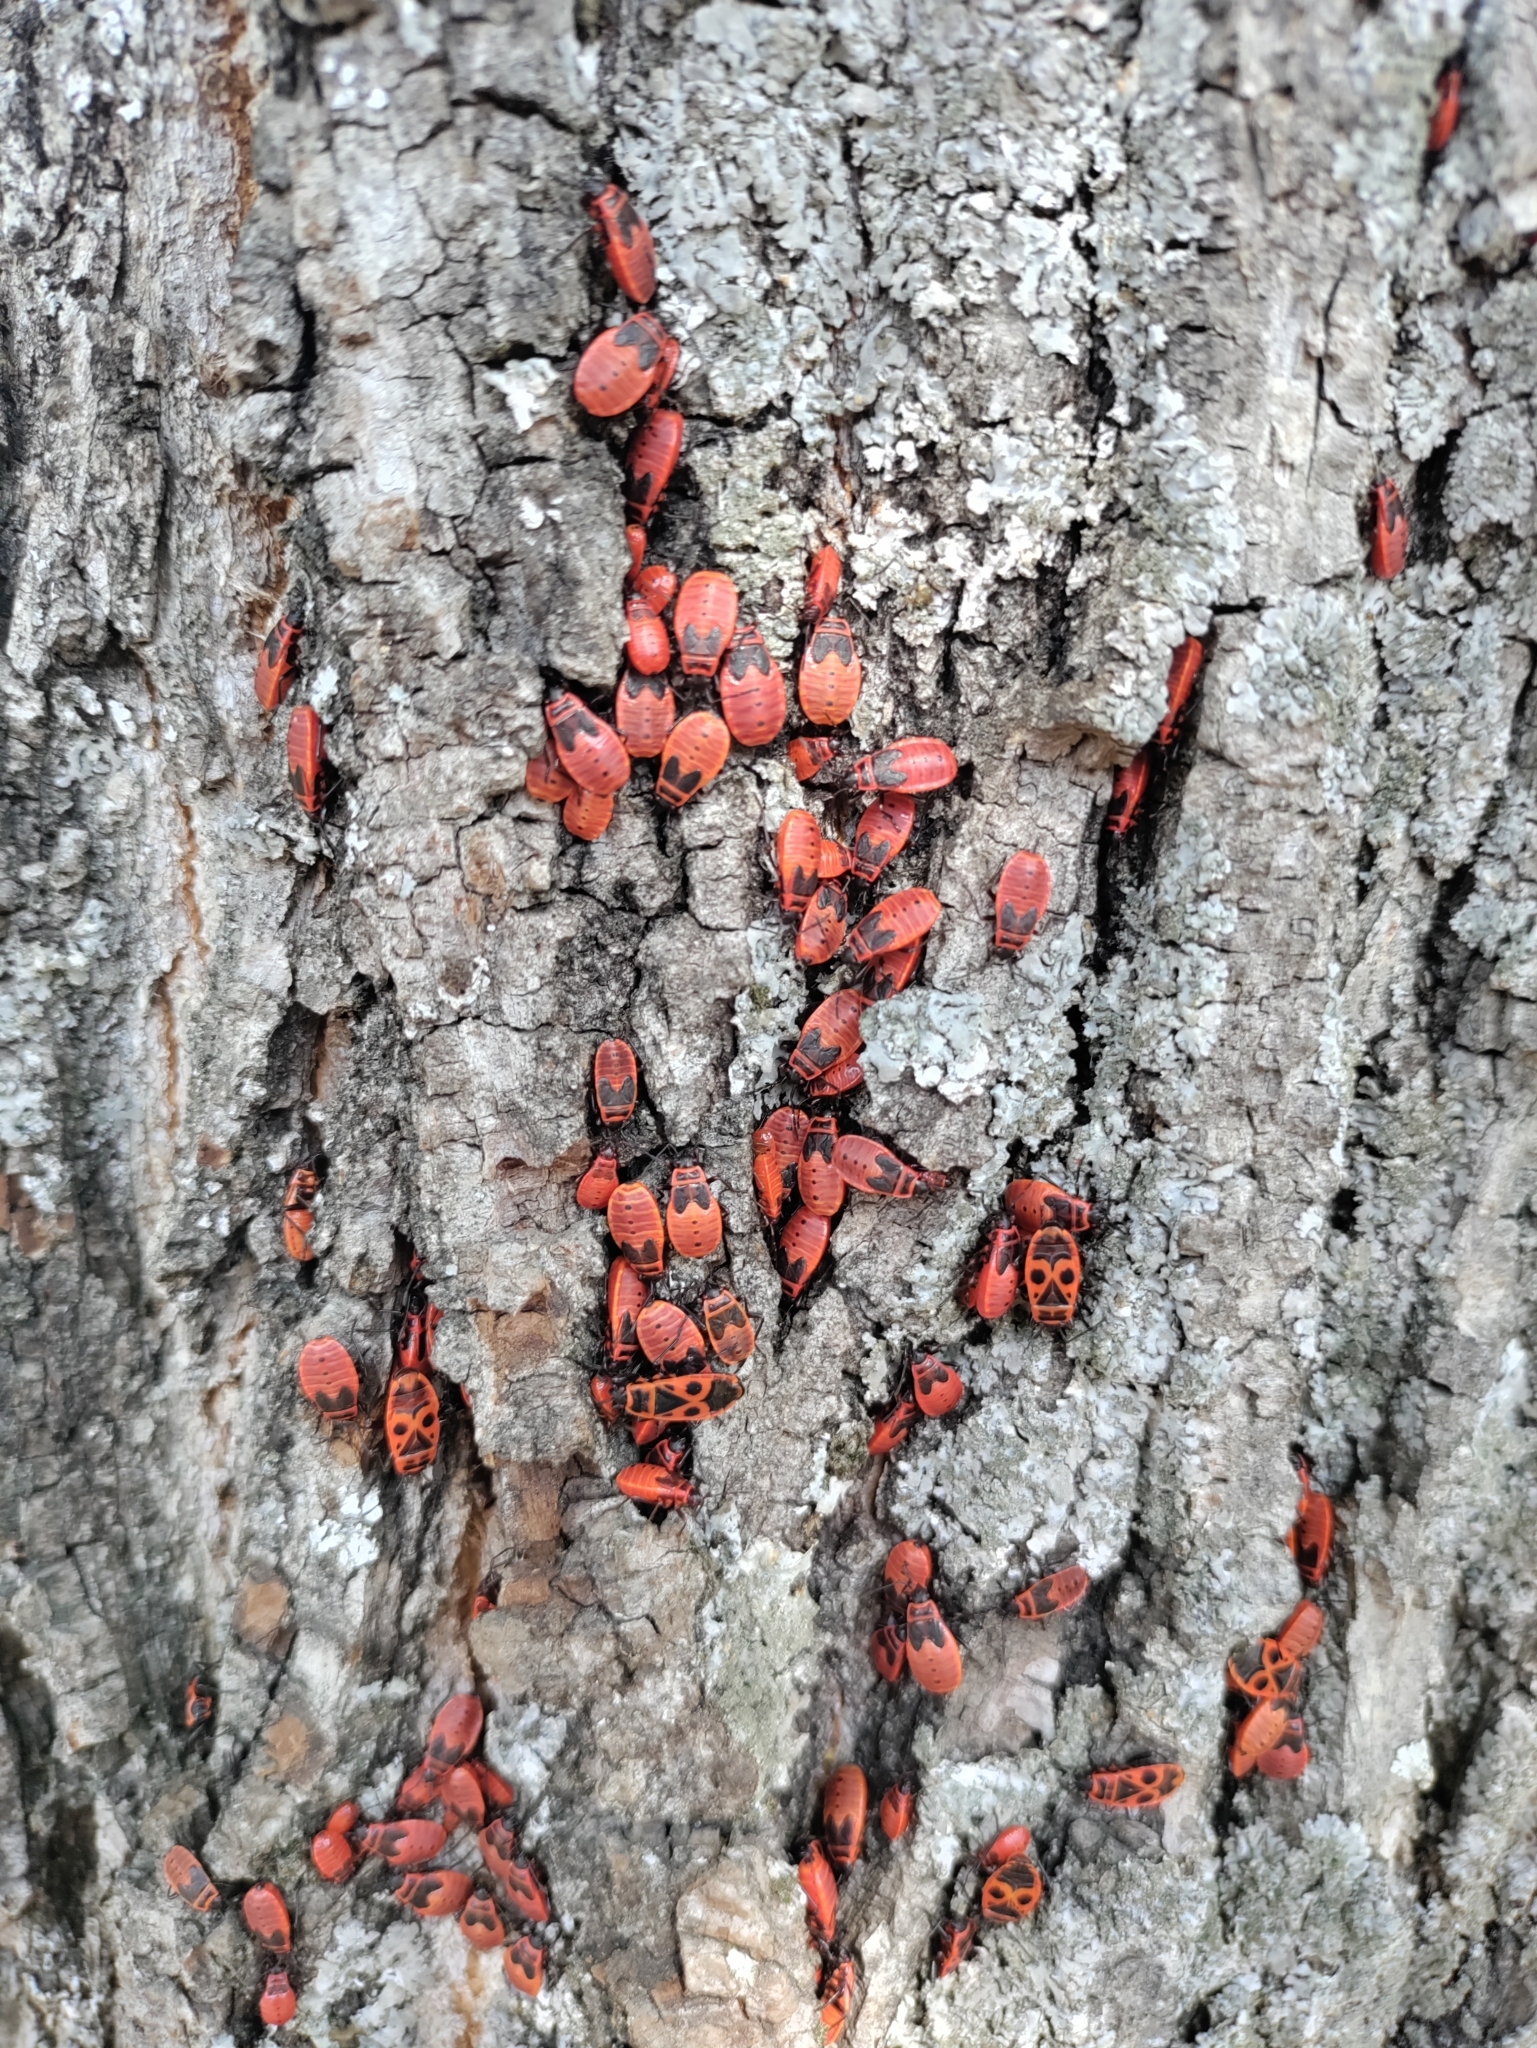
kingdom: Animalia
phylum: Arthropoda
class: Insecta
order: Hemiptera
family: Pyrrhocoridae
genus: Pyrrhocoris
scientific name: Pyrrhocoris apterus
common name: Firebug
